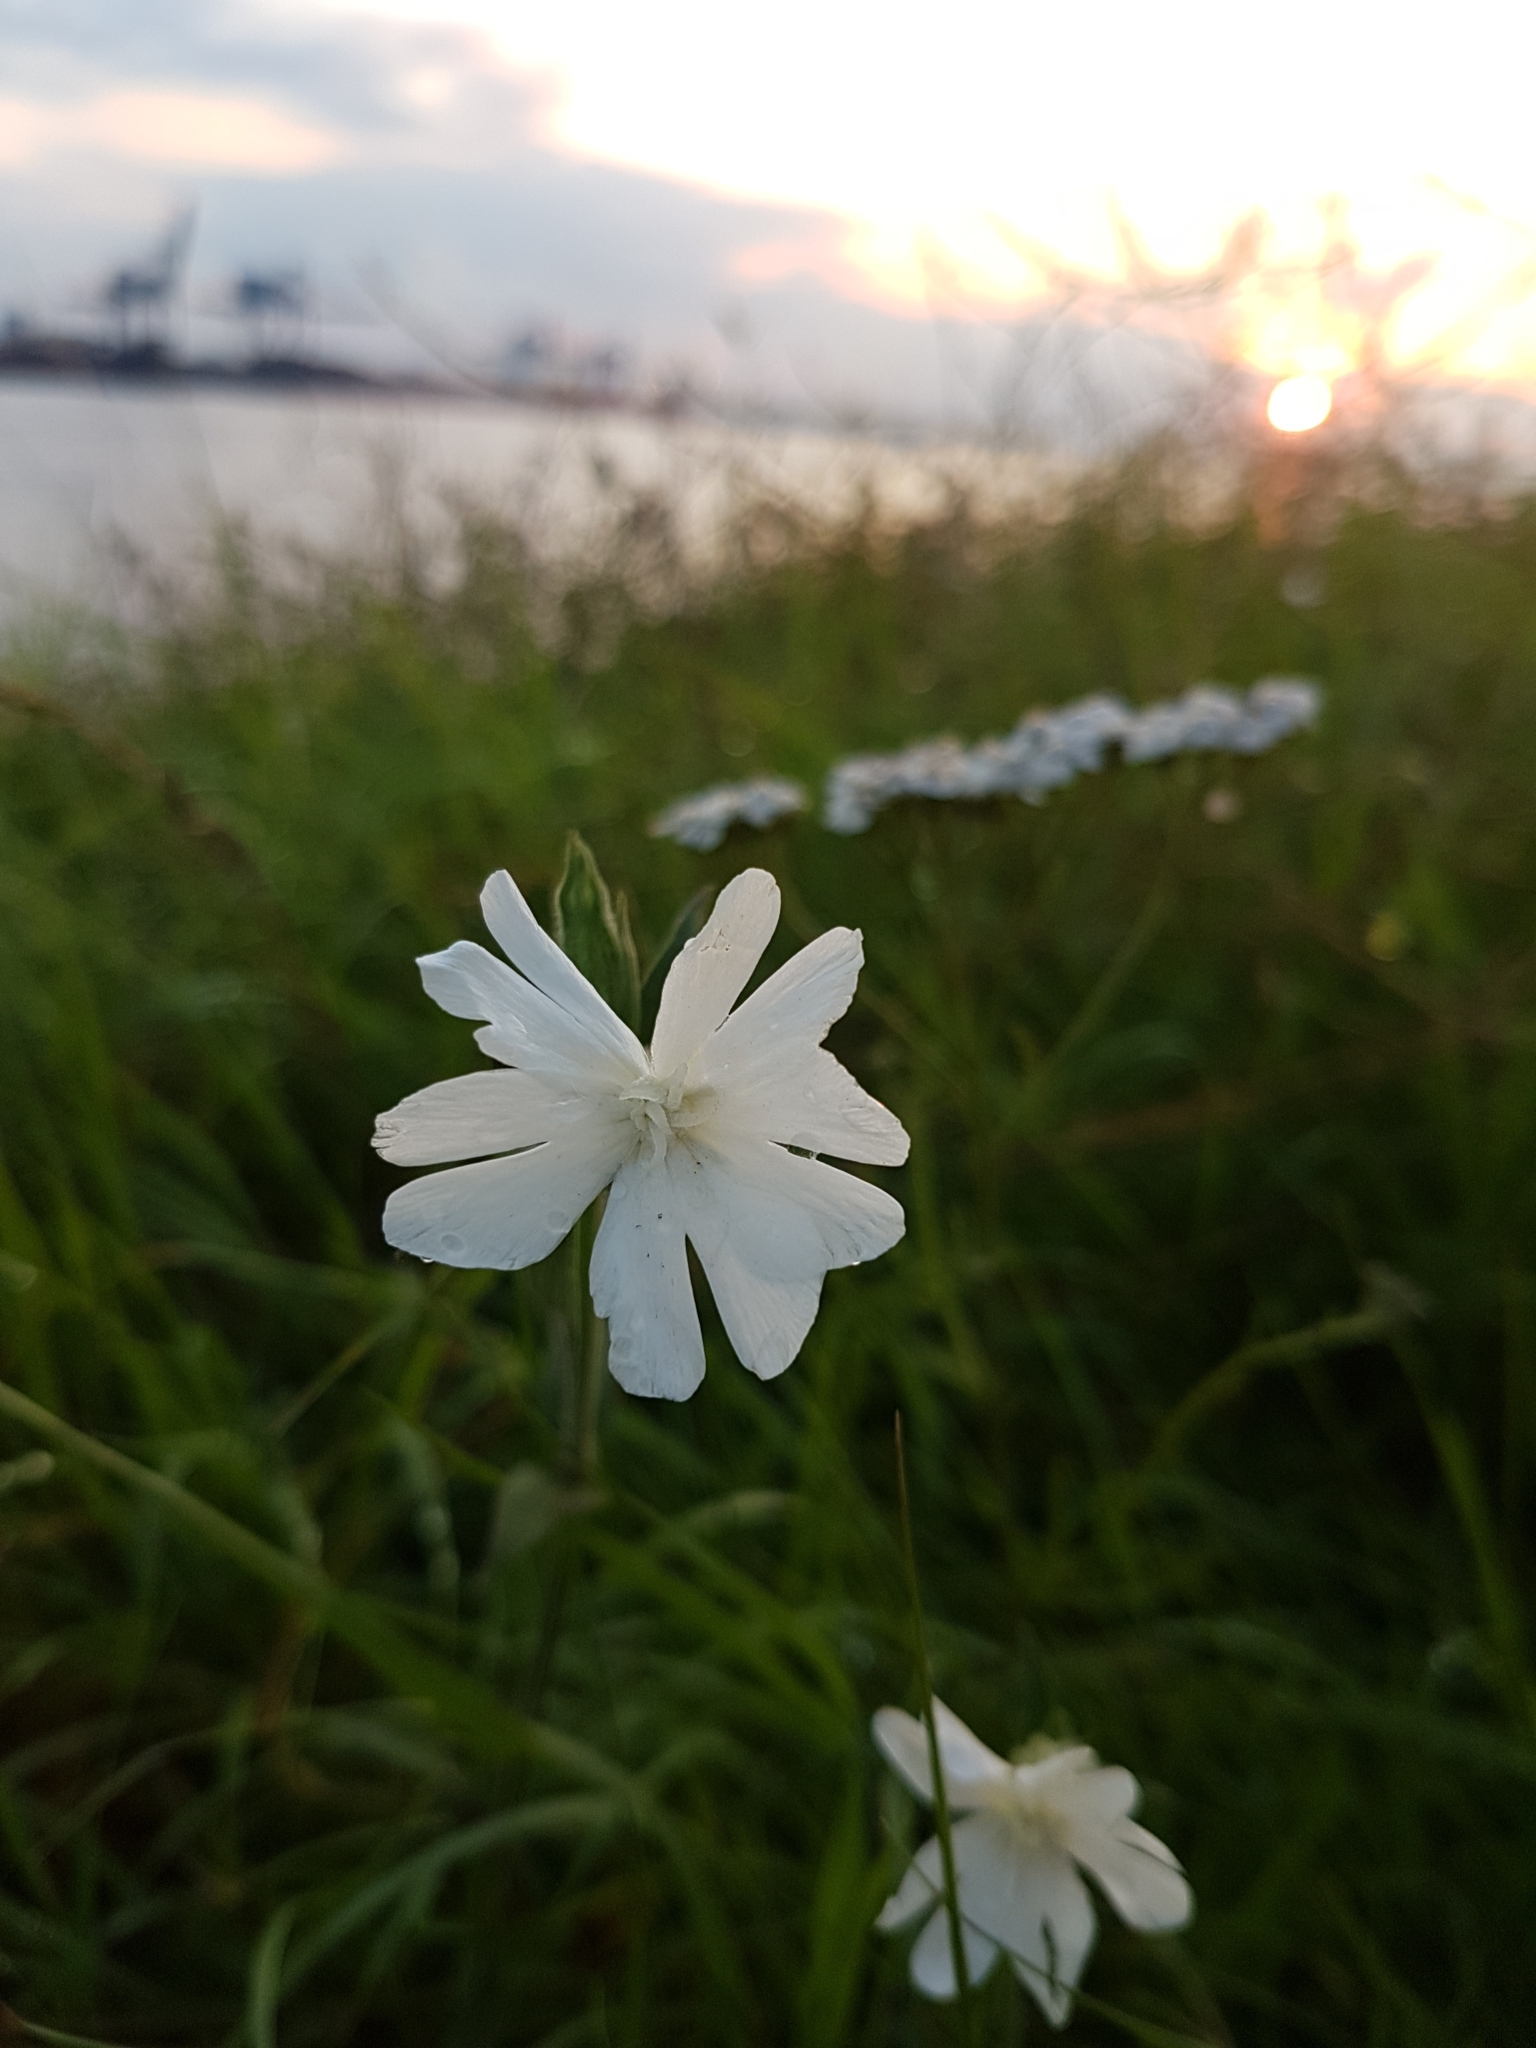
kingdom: Plantae
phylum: Tracheophyta
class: Magnoliopsida
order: Caryophyllales
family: Caryophyllaceae
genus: Silene
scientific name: Silene latifolia
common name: White campion
